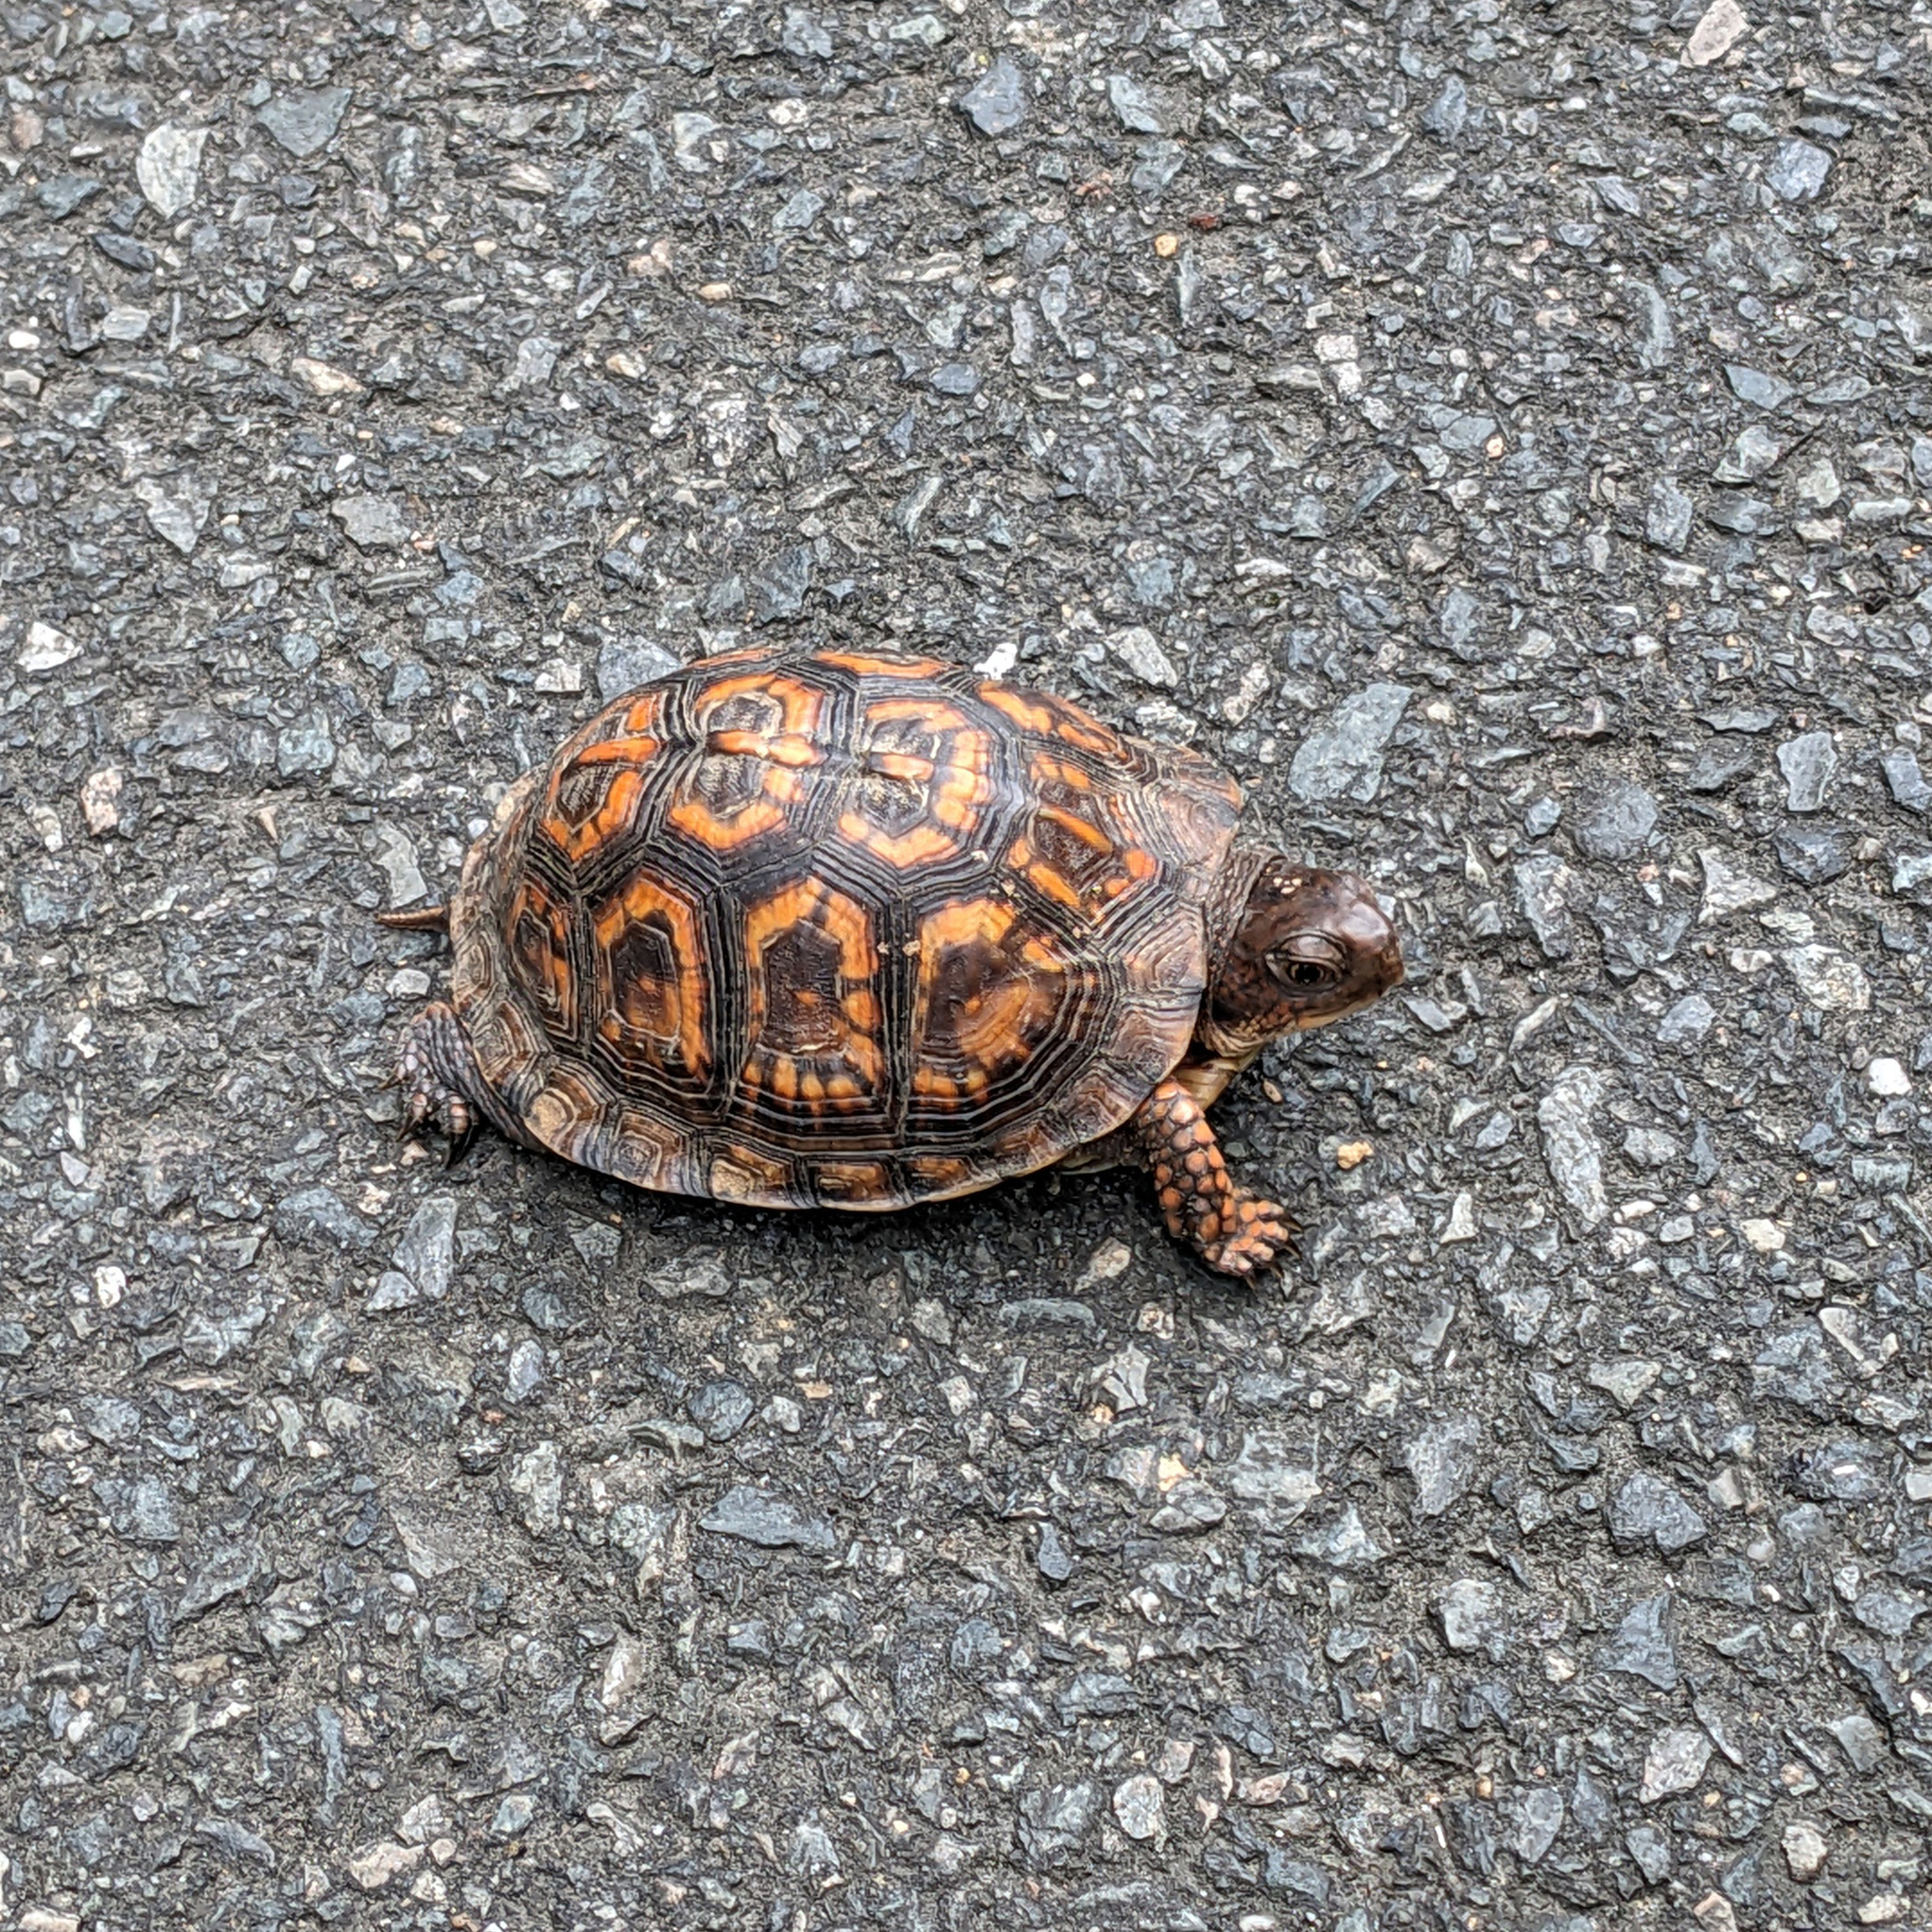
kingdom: Animalia
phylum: Chordata
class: Testudines
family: Emydidae
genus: Terrapene
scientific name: Terrapene carolina
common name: Common box turtle
